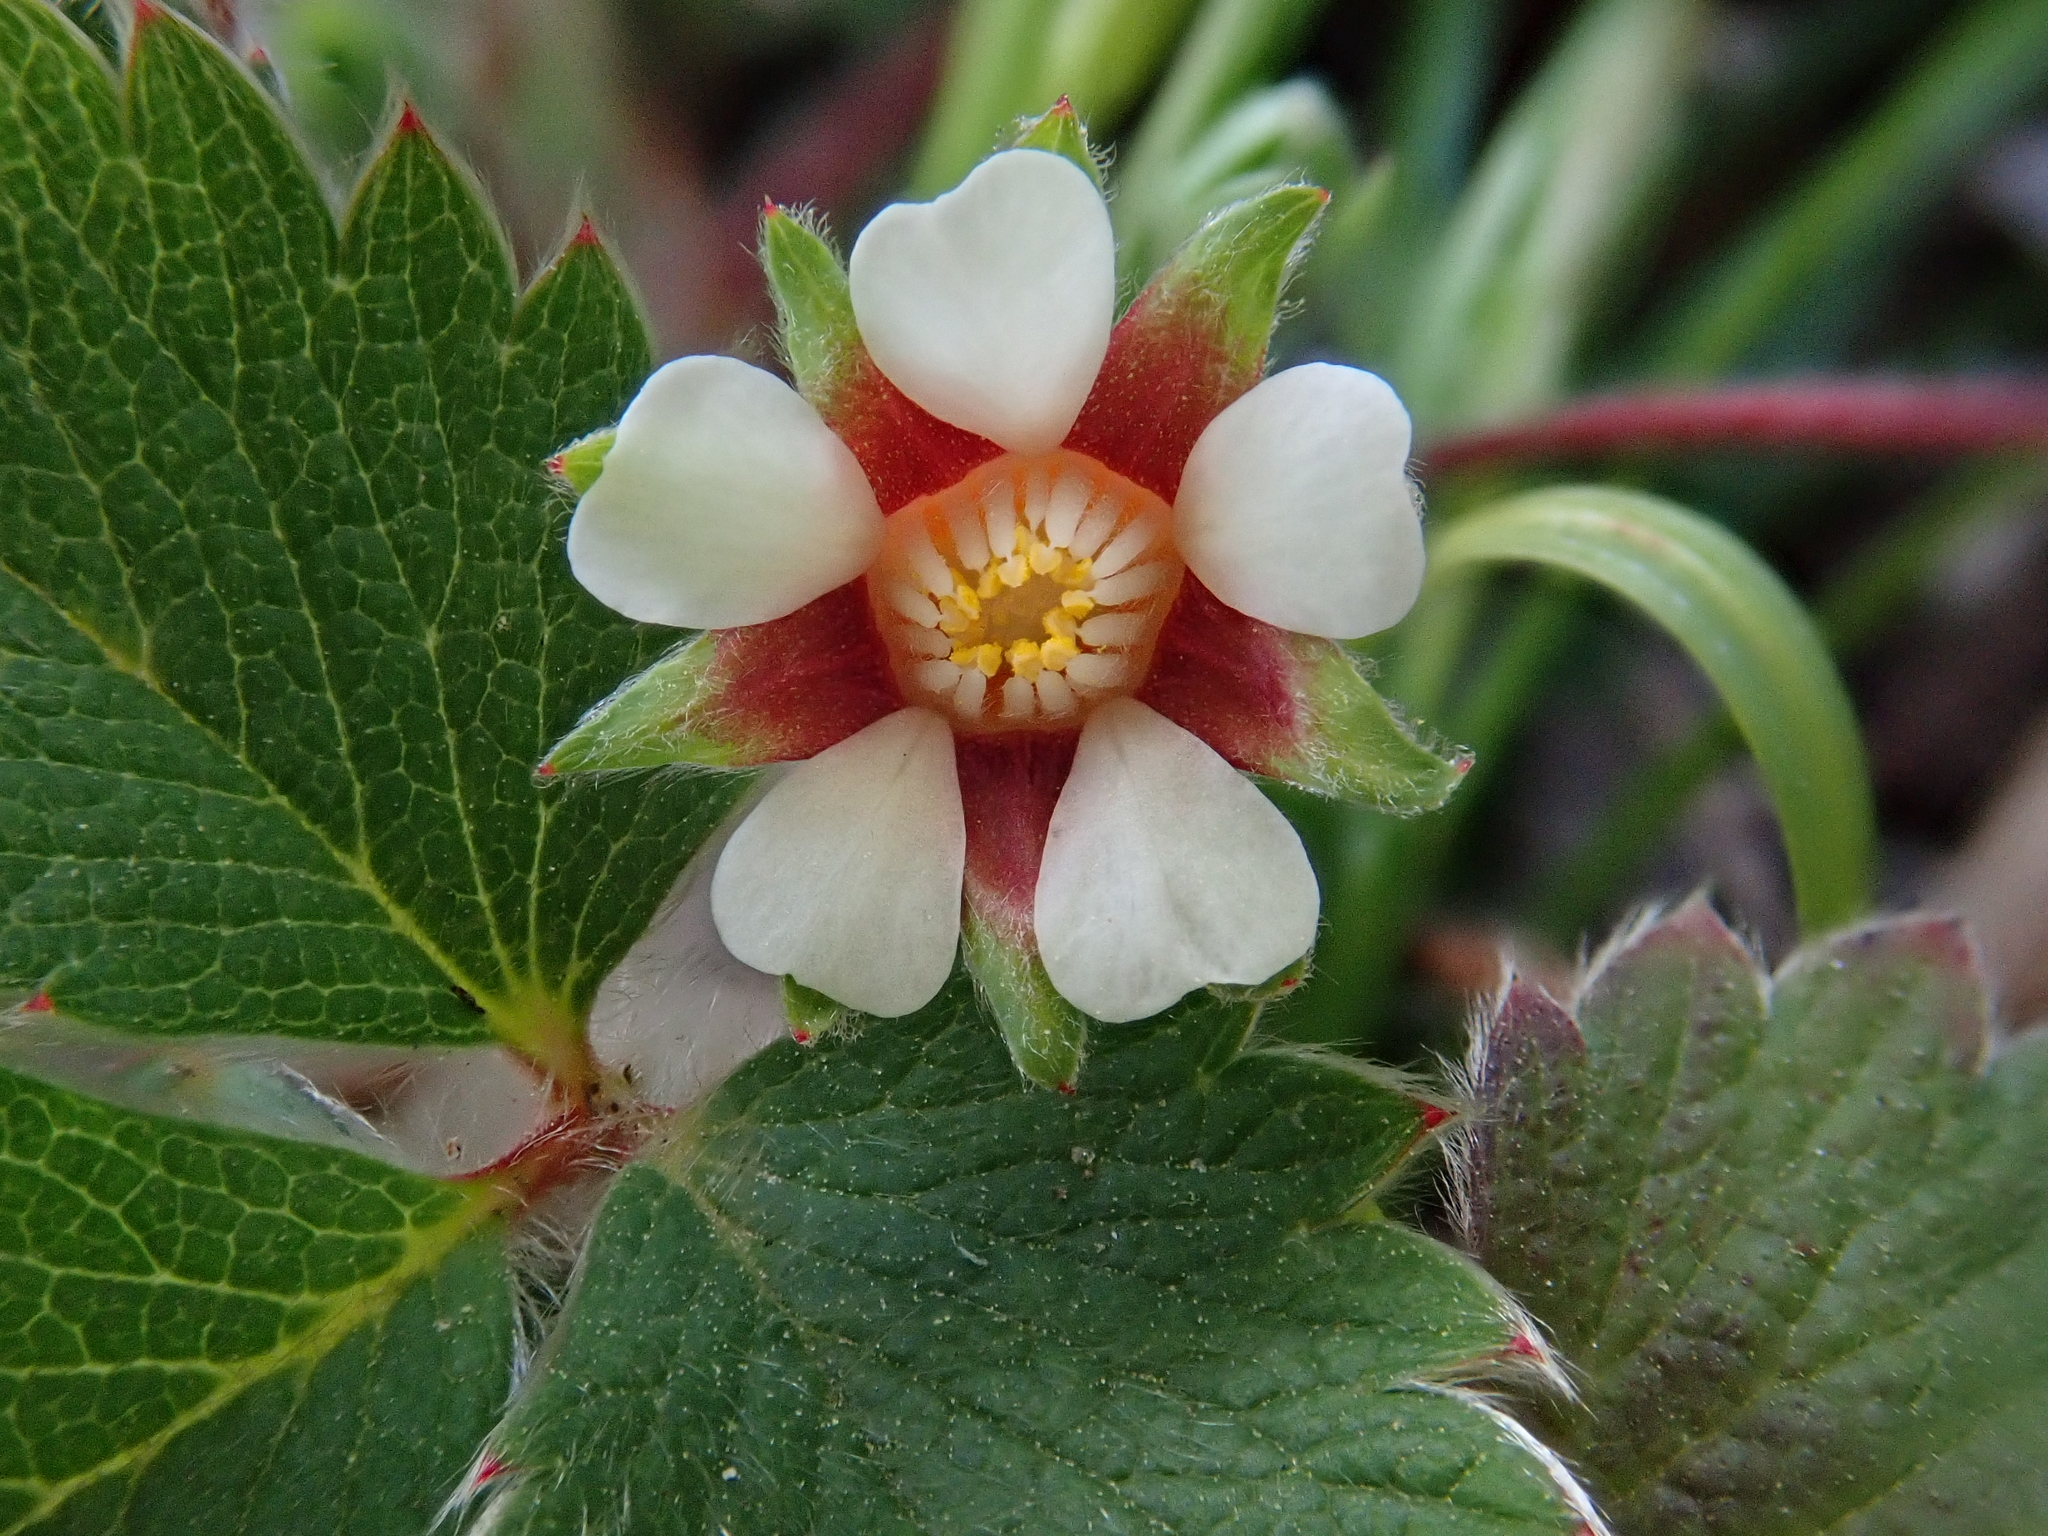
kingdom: Plantae
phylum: Tracheophyta
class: Magnoliopsida
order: Rosales
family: Rosaceae
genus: Potentilla
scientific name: Potentilla micrantha
